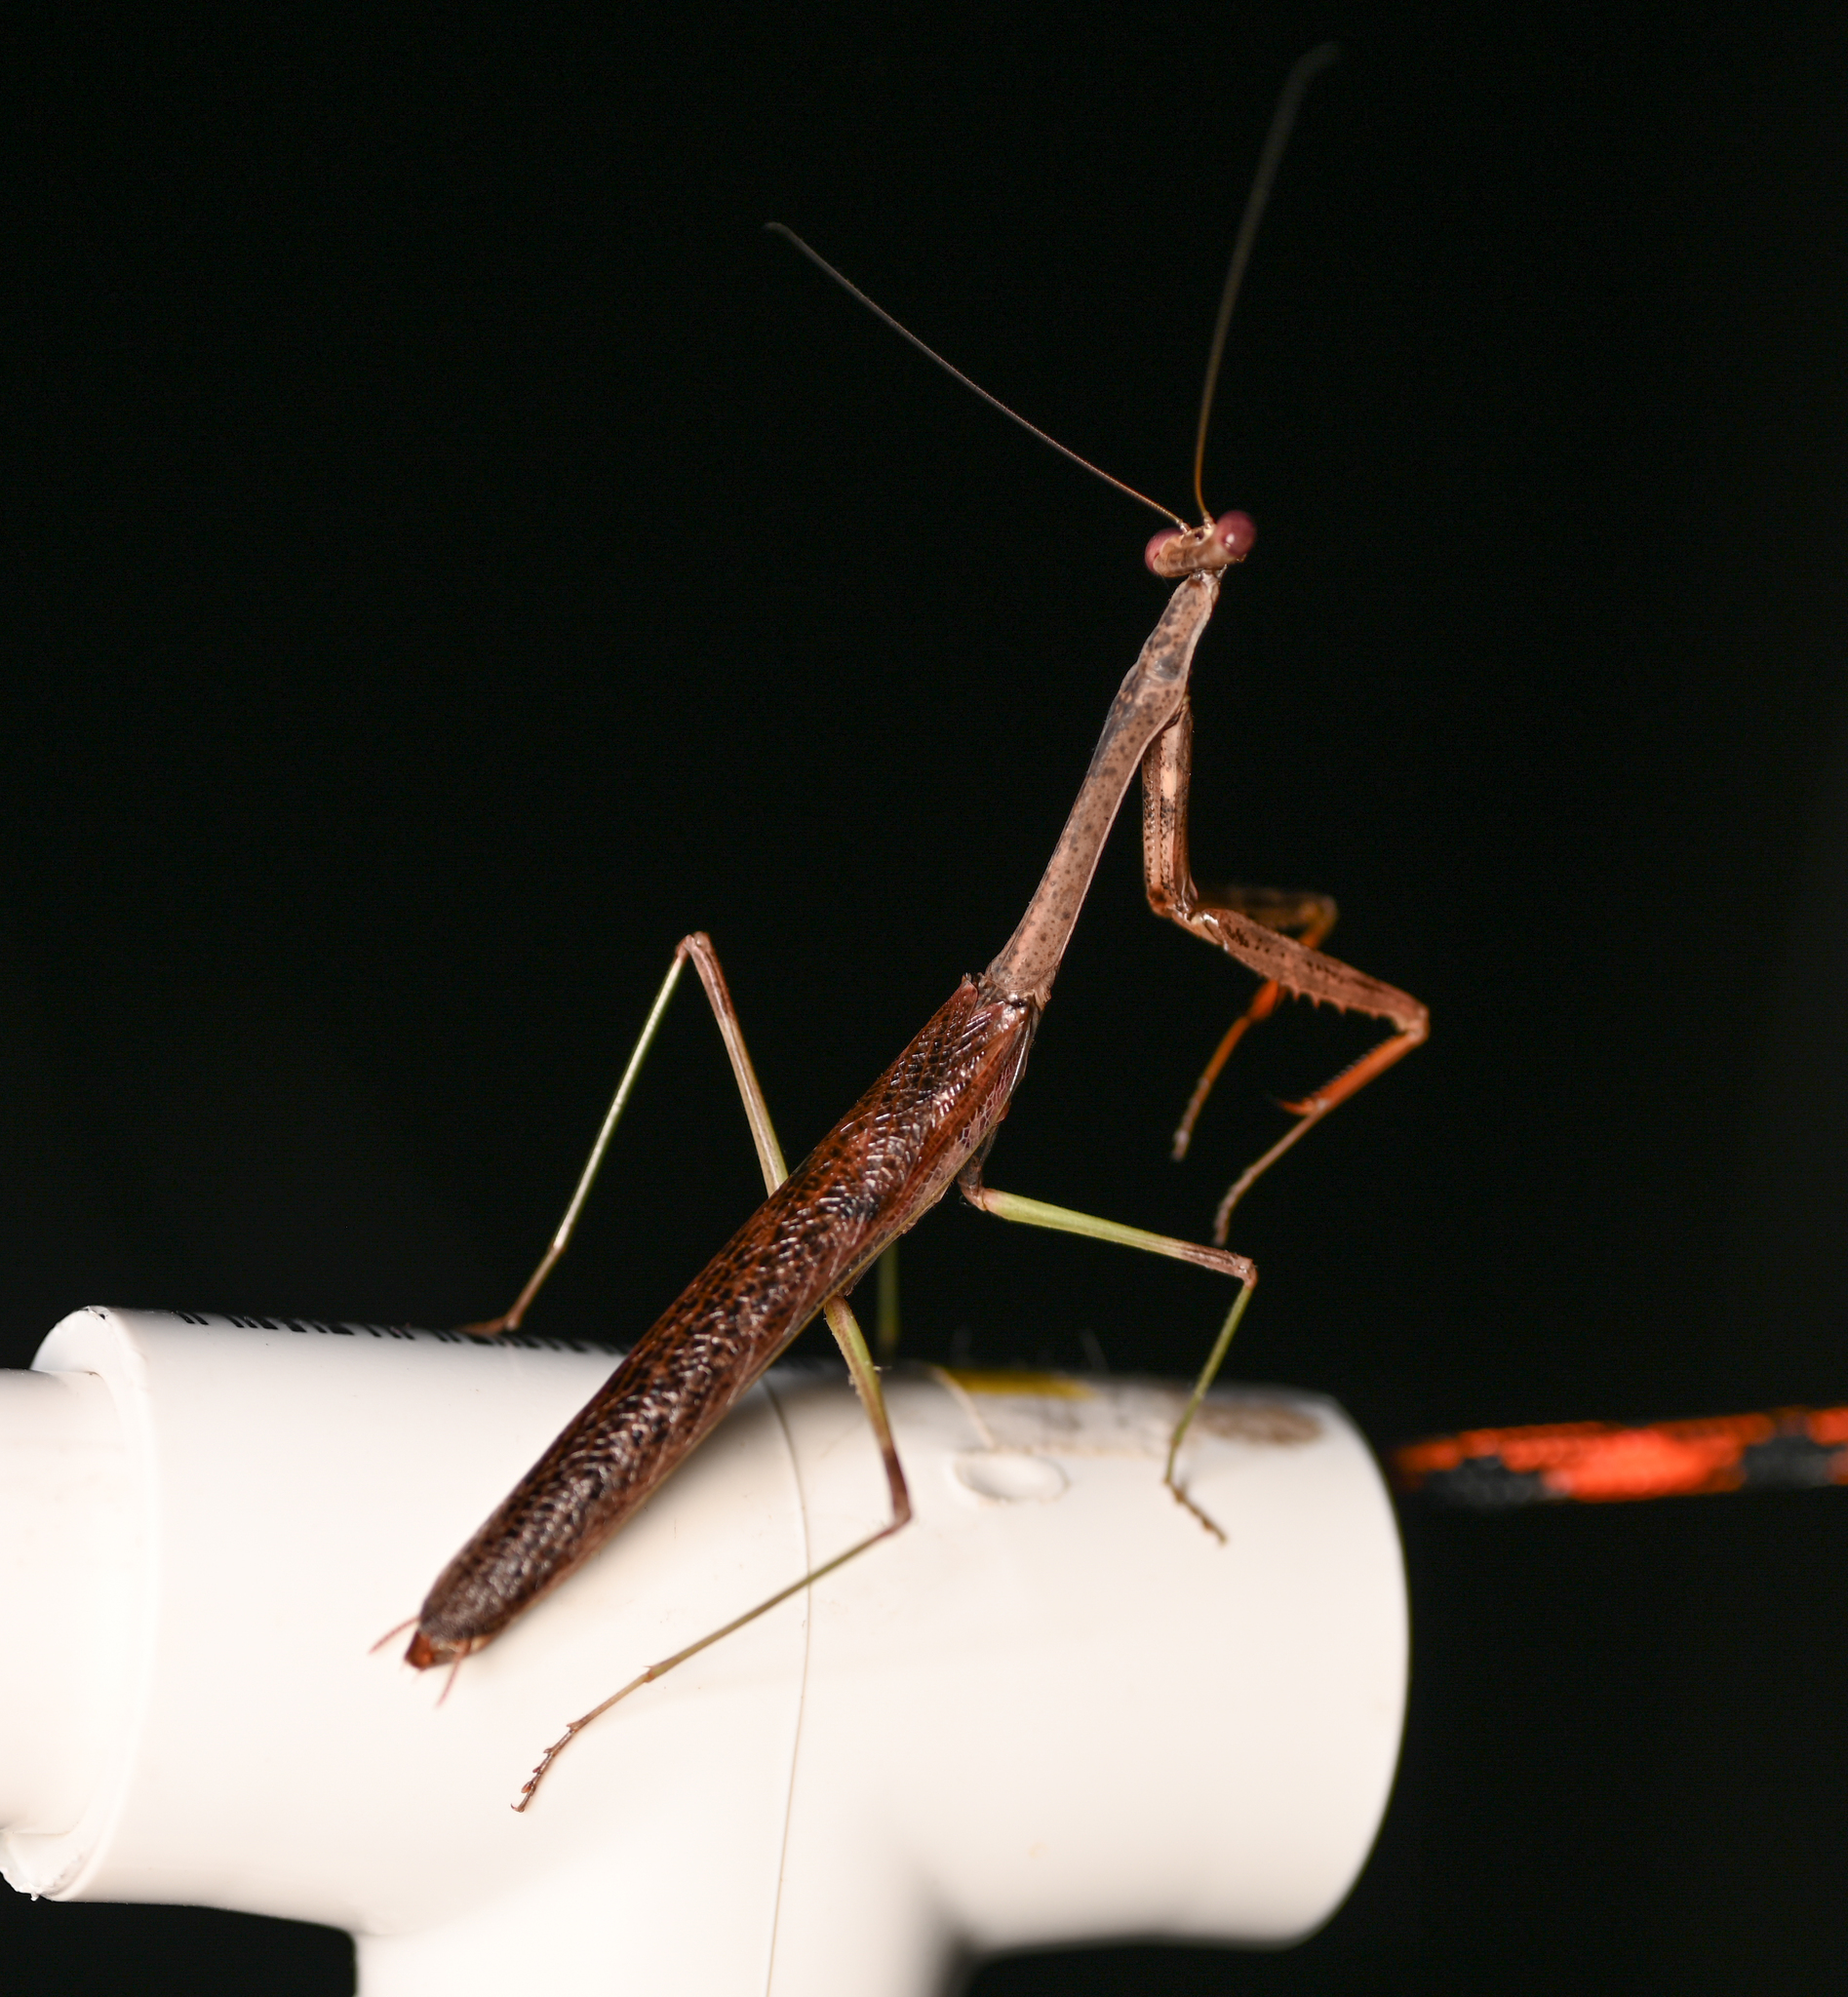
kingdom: Animalia
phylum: Arthropoda
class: Insecta
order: Mantodea
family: Mantidae
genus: Stagmomantis
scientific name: Stagmomantis carolina
